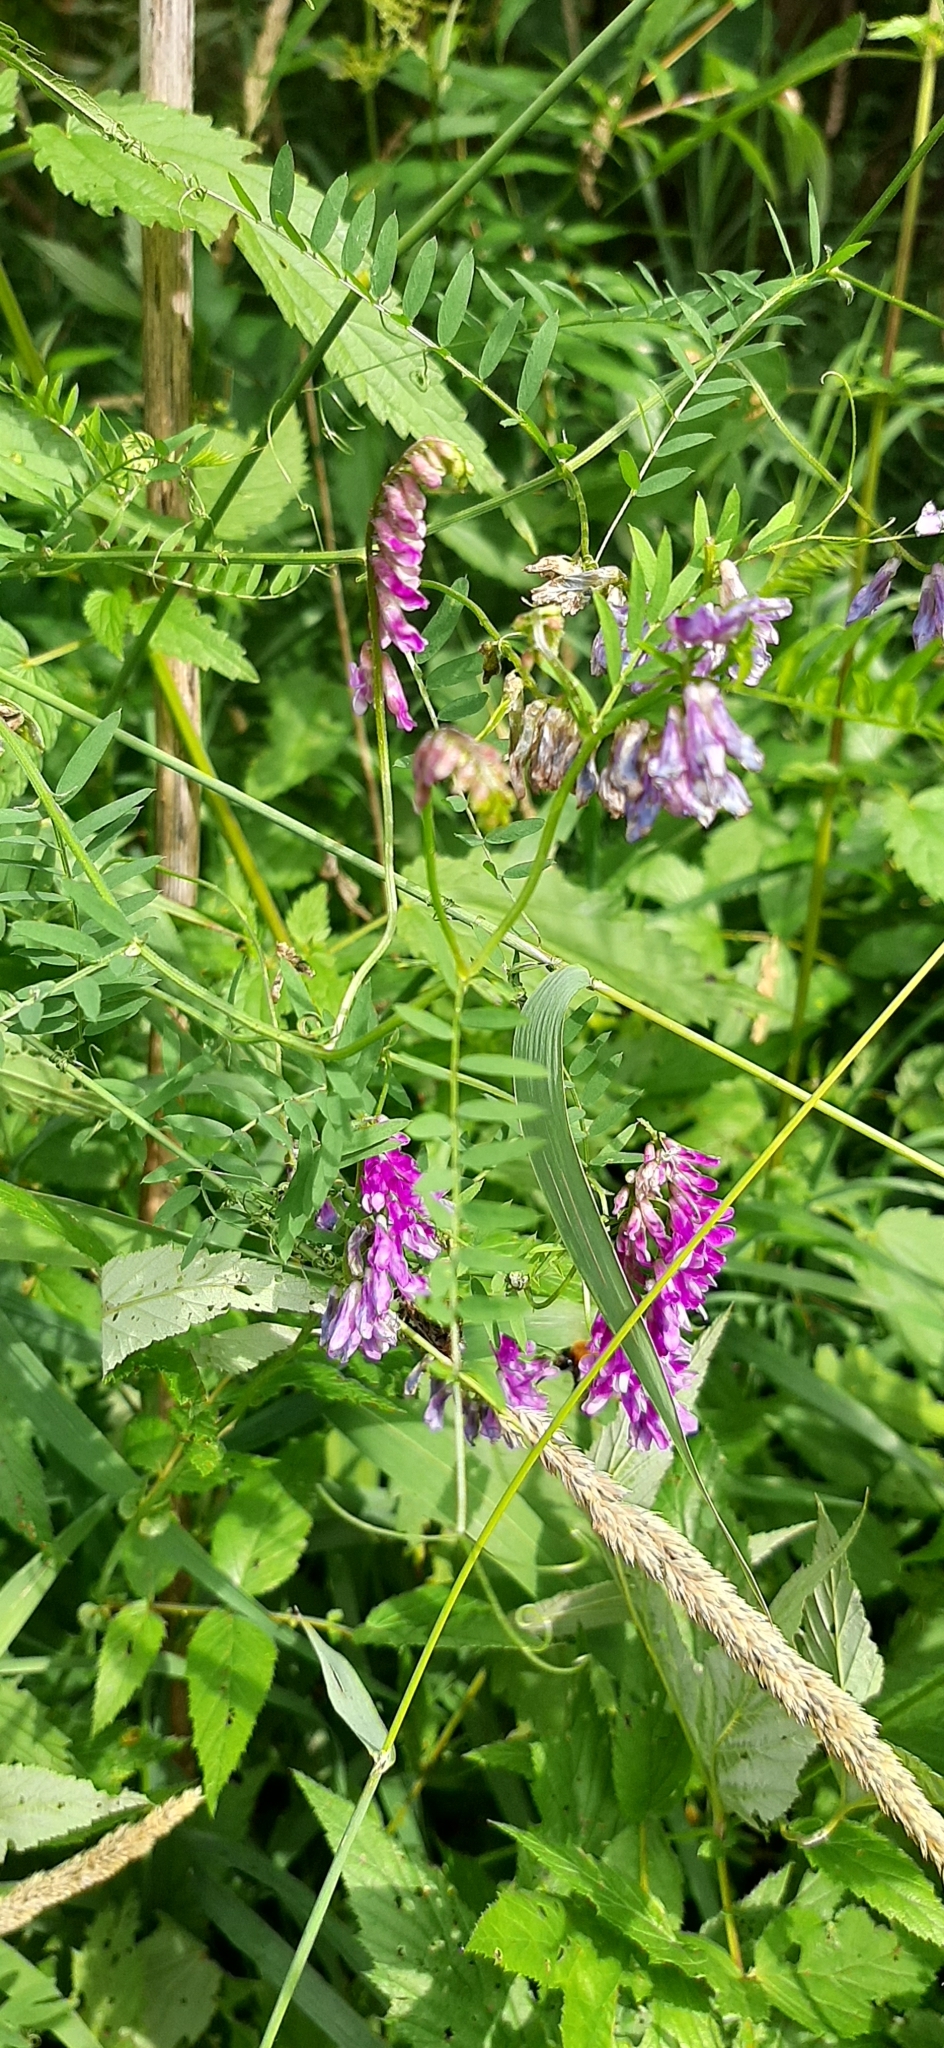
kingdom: Plantae
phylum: Tracheophyta
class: Magnoliopsida
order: Fabales
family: Fabaceae
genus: Vicia
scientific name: Vicia cracca
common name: Bird vetch
